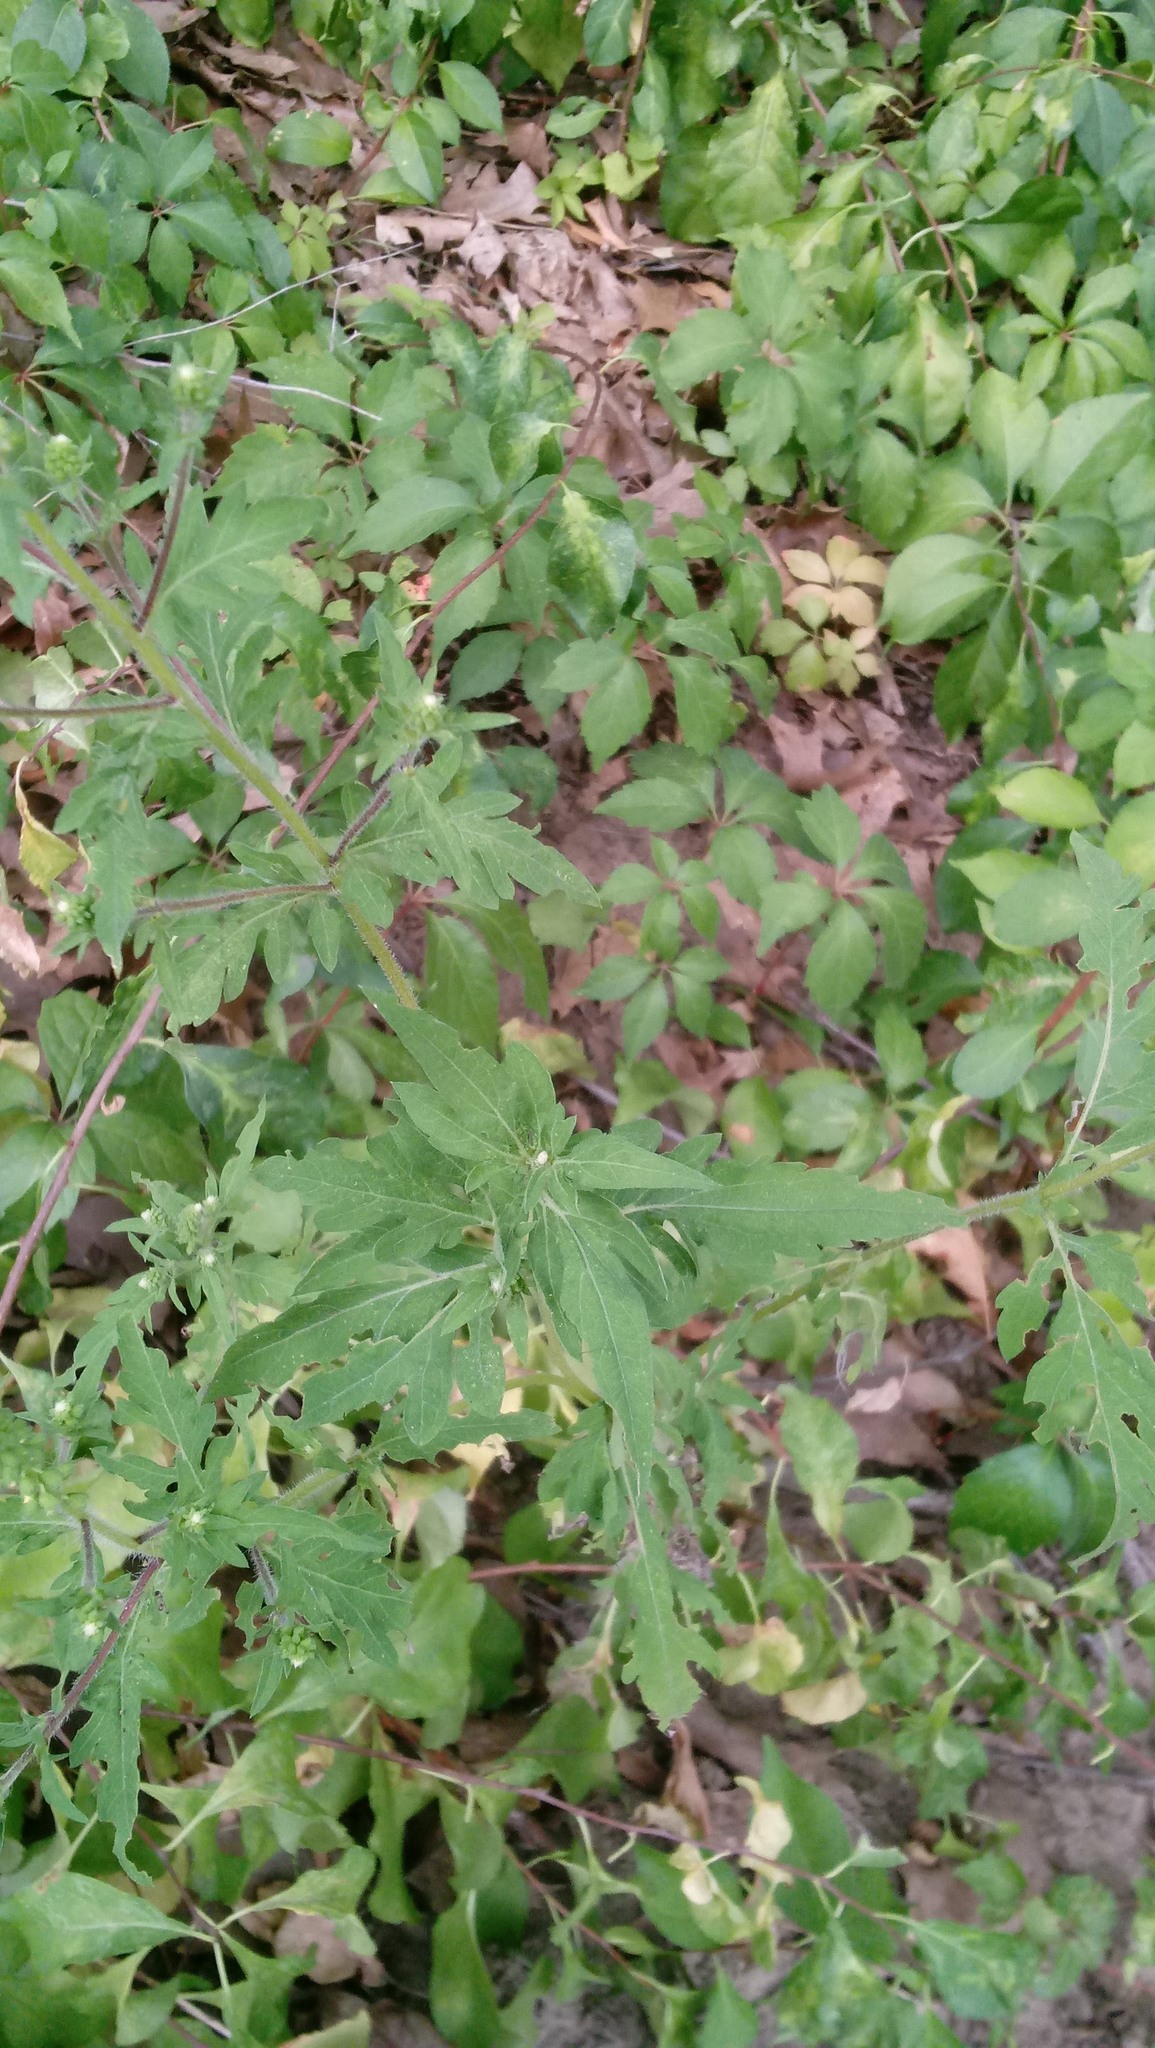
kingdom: Plantae
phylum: Tracheophyta
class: Magnoliopsida
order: Asterales
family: Asteraceae
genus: Ambrosia
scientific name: Ambrosia artemisiifolia
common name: Annual ragweed
